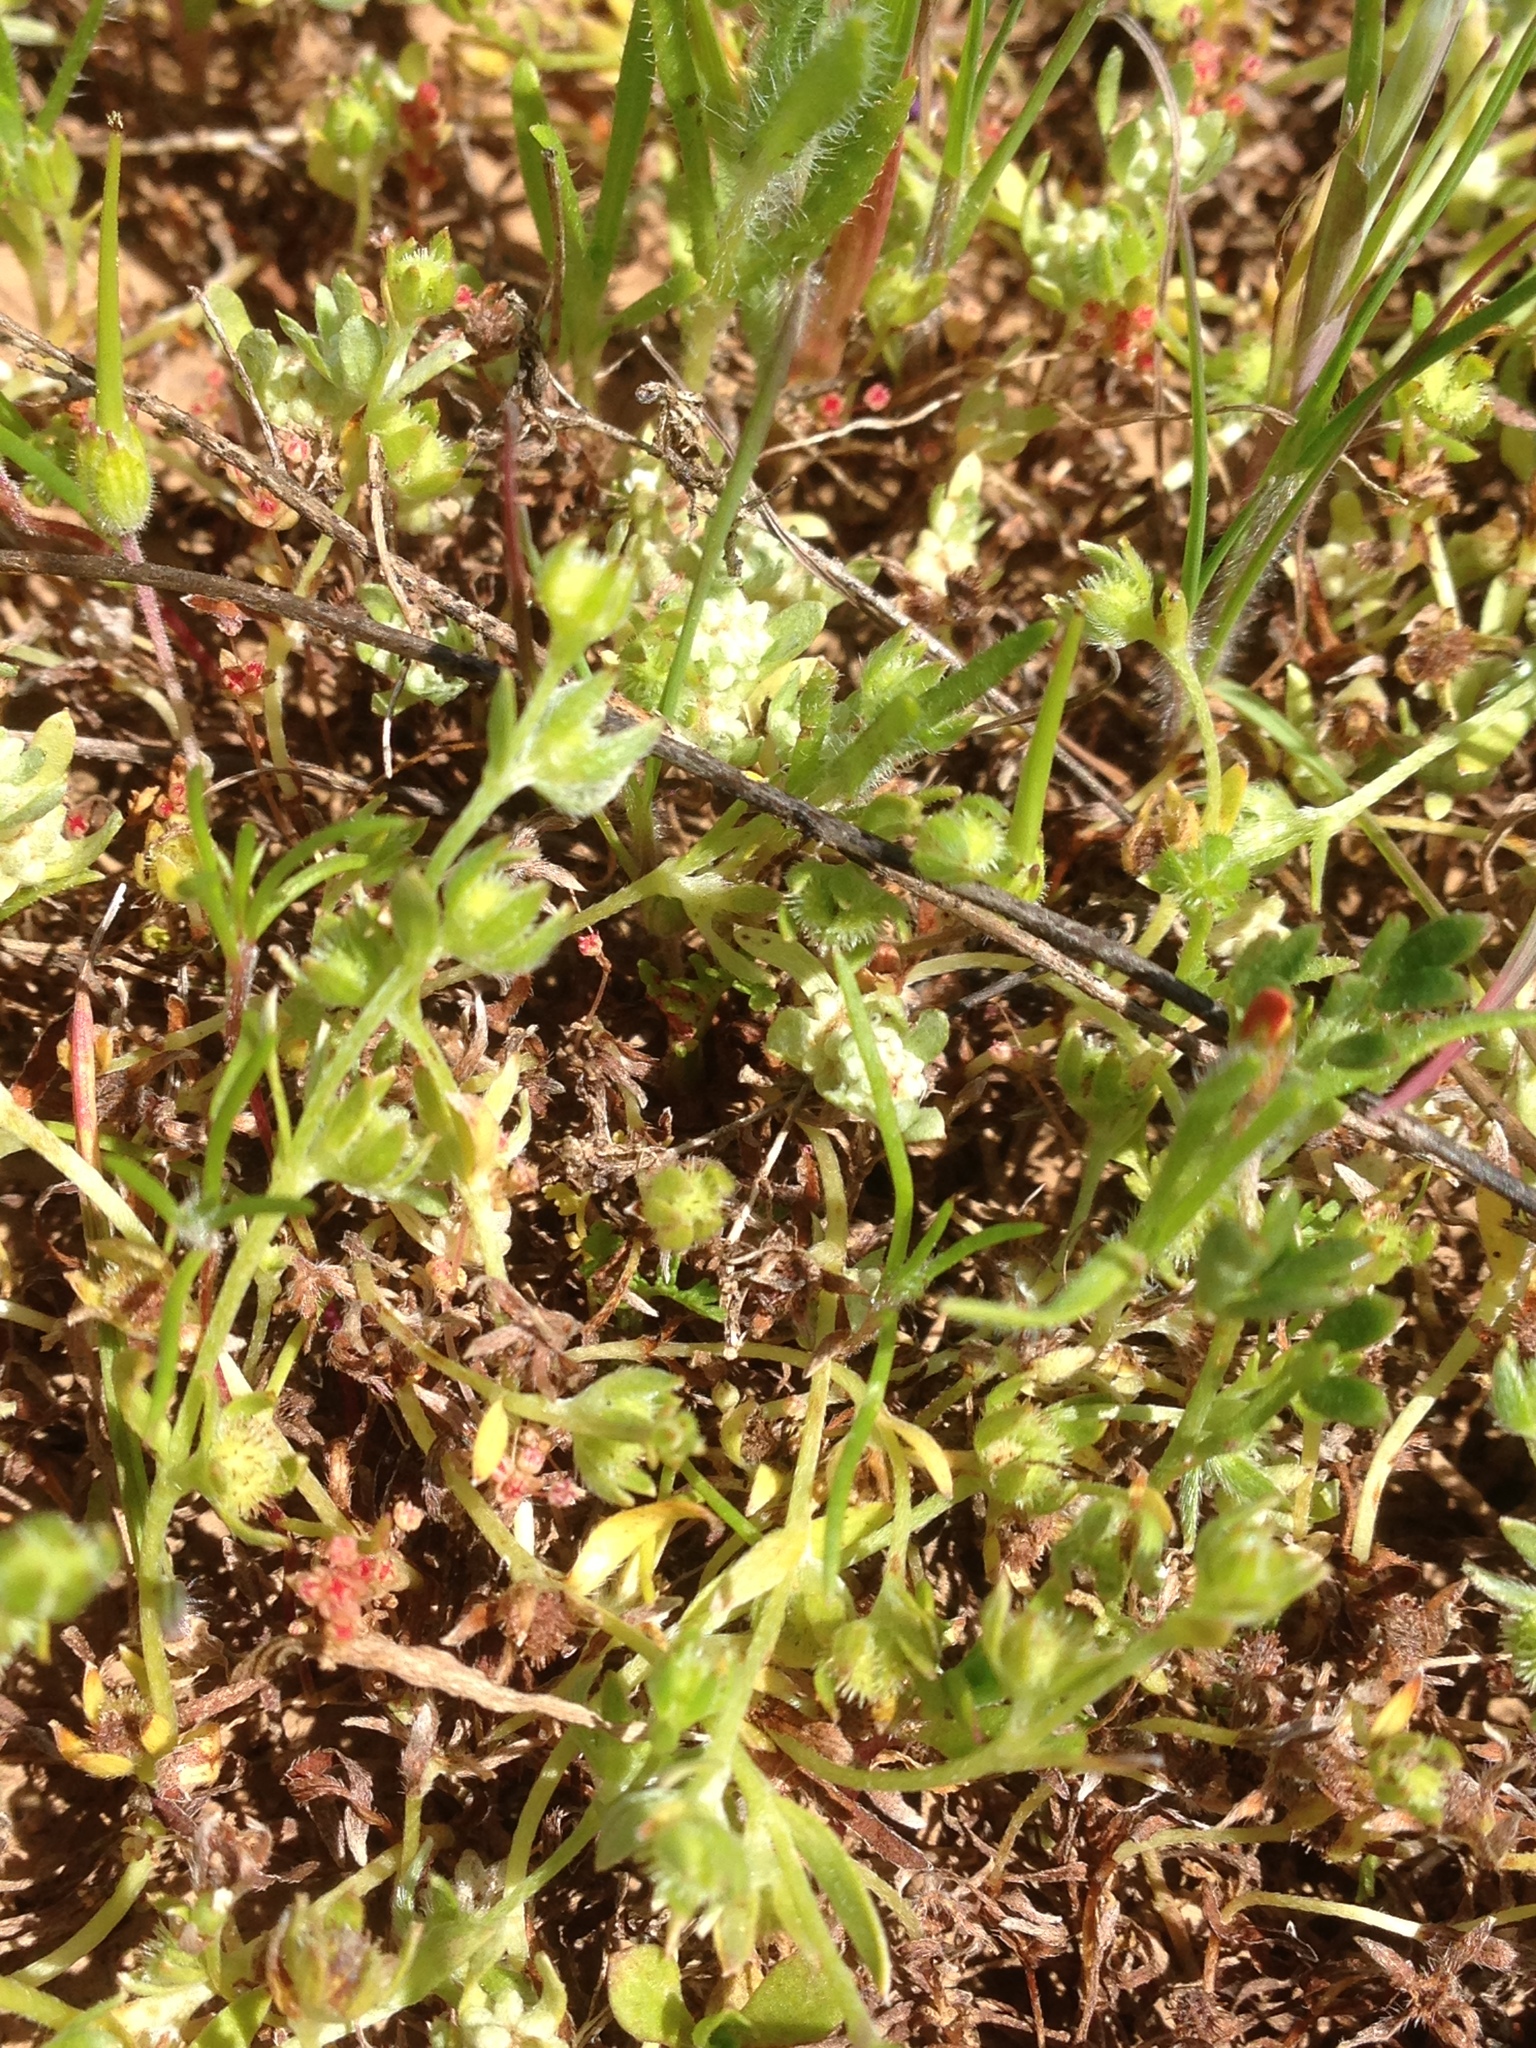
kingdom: Plantae
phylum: Tracheophyta
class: Magnoliopsida
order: Boraginales
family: Boraginaceae
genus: Plagiobothrys
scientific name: Plagiobothrys acanthocarpus
